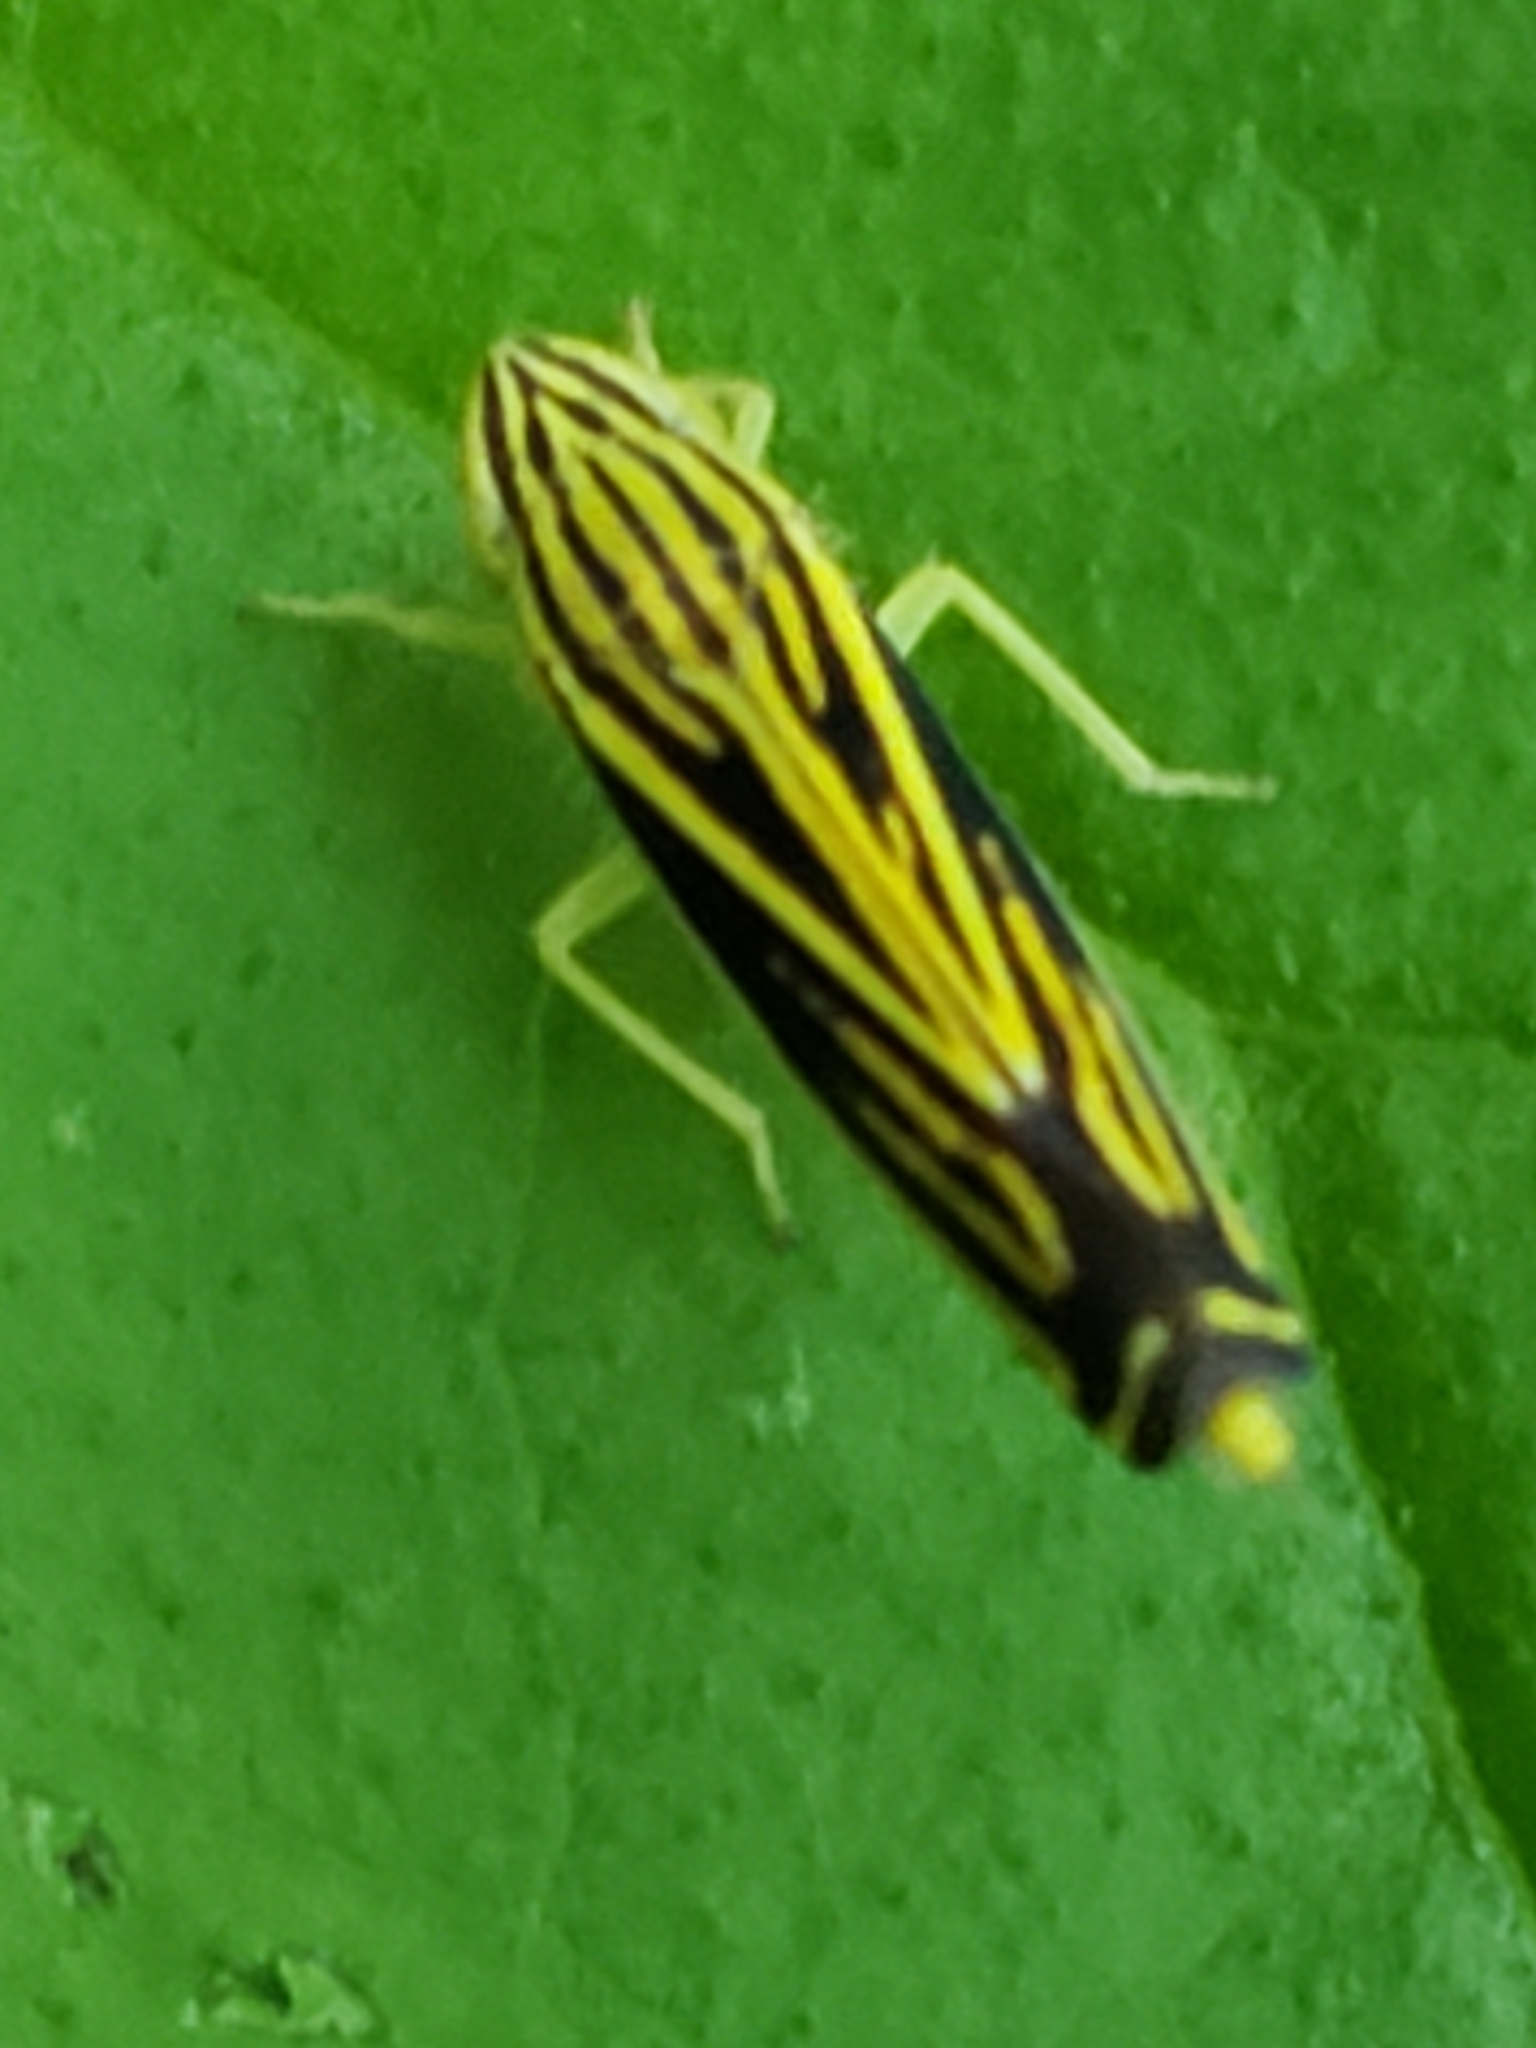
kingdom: Animalia
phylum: Arthropoda
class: Insecta
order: Hemiptera
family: Cicadellidae
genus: Sibovia
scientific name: Sibovia occatoria
